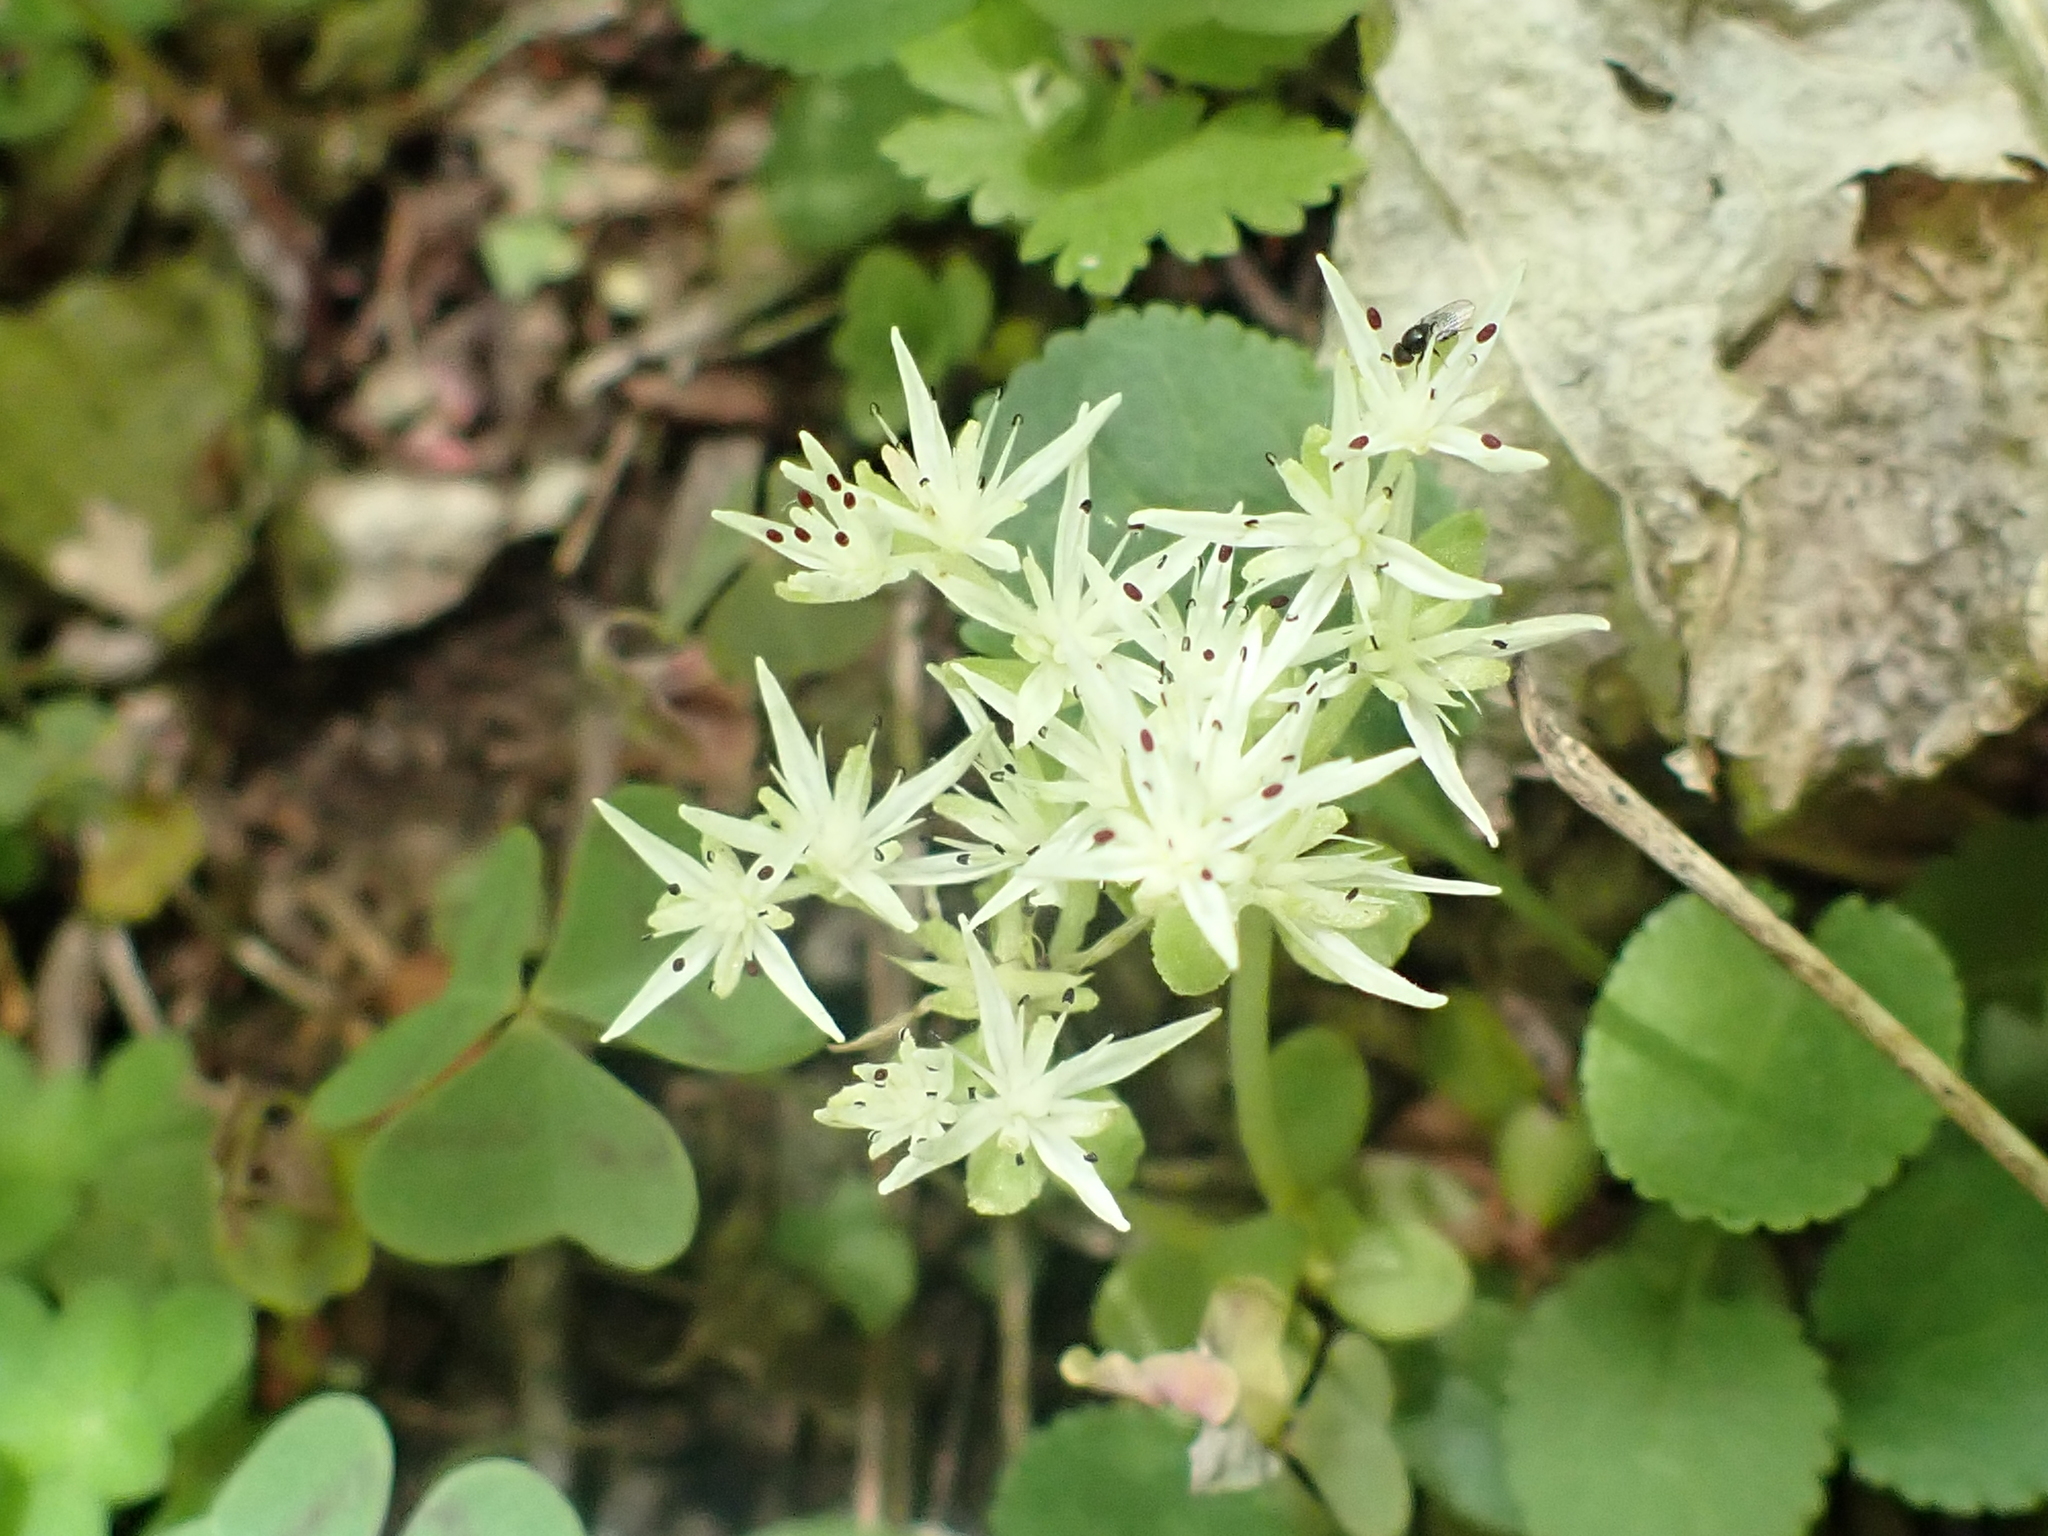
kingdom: Plantae
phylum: Tracheophyta
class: Magnoliopsida
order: Saxifragales
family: Crassulaceae
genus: Sedum
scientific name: Sedum ternatum
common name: Wild stonecrop
